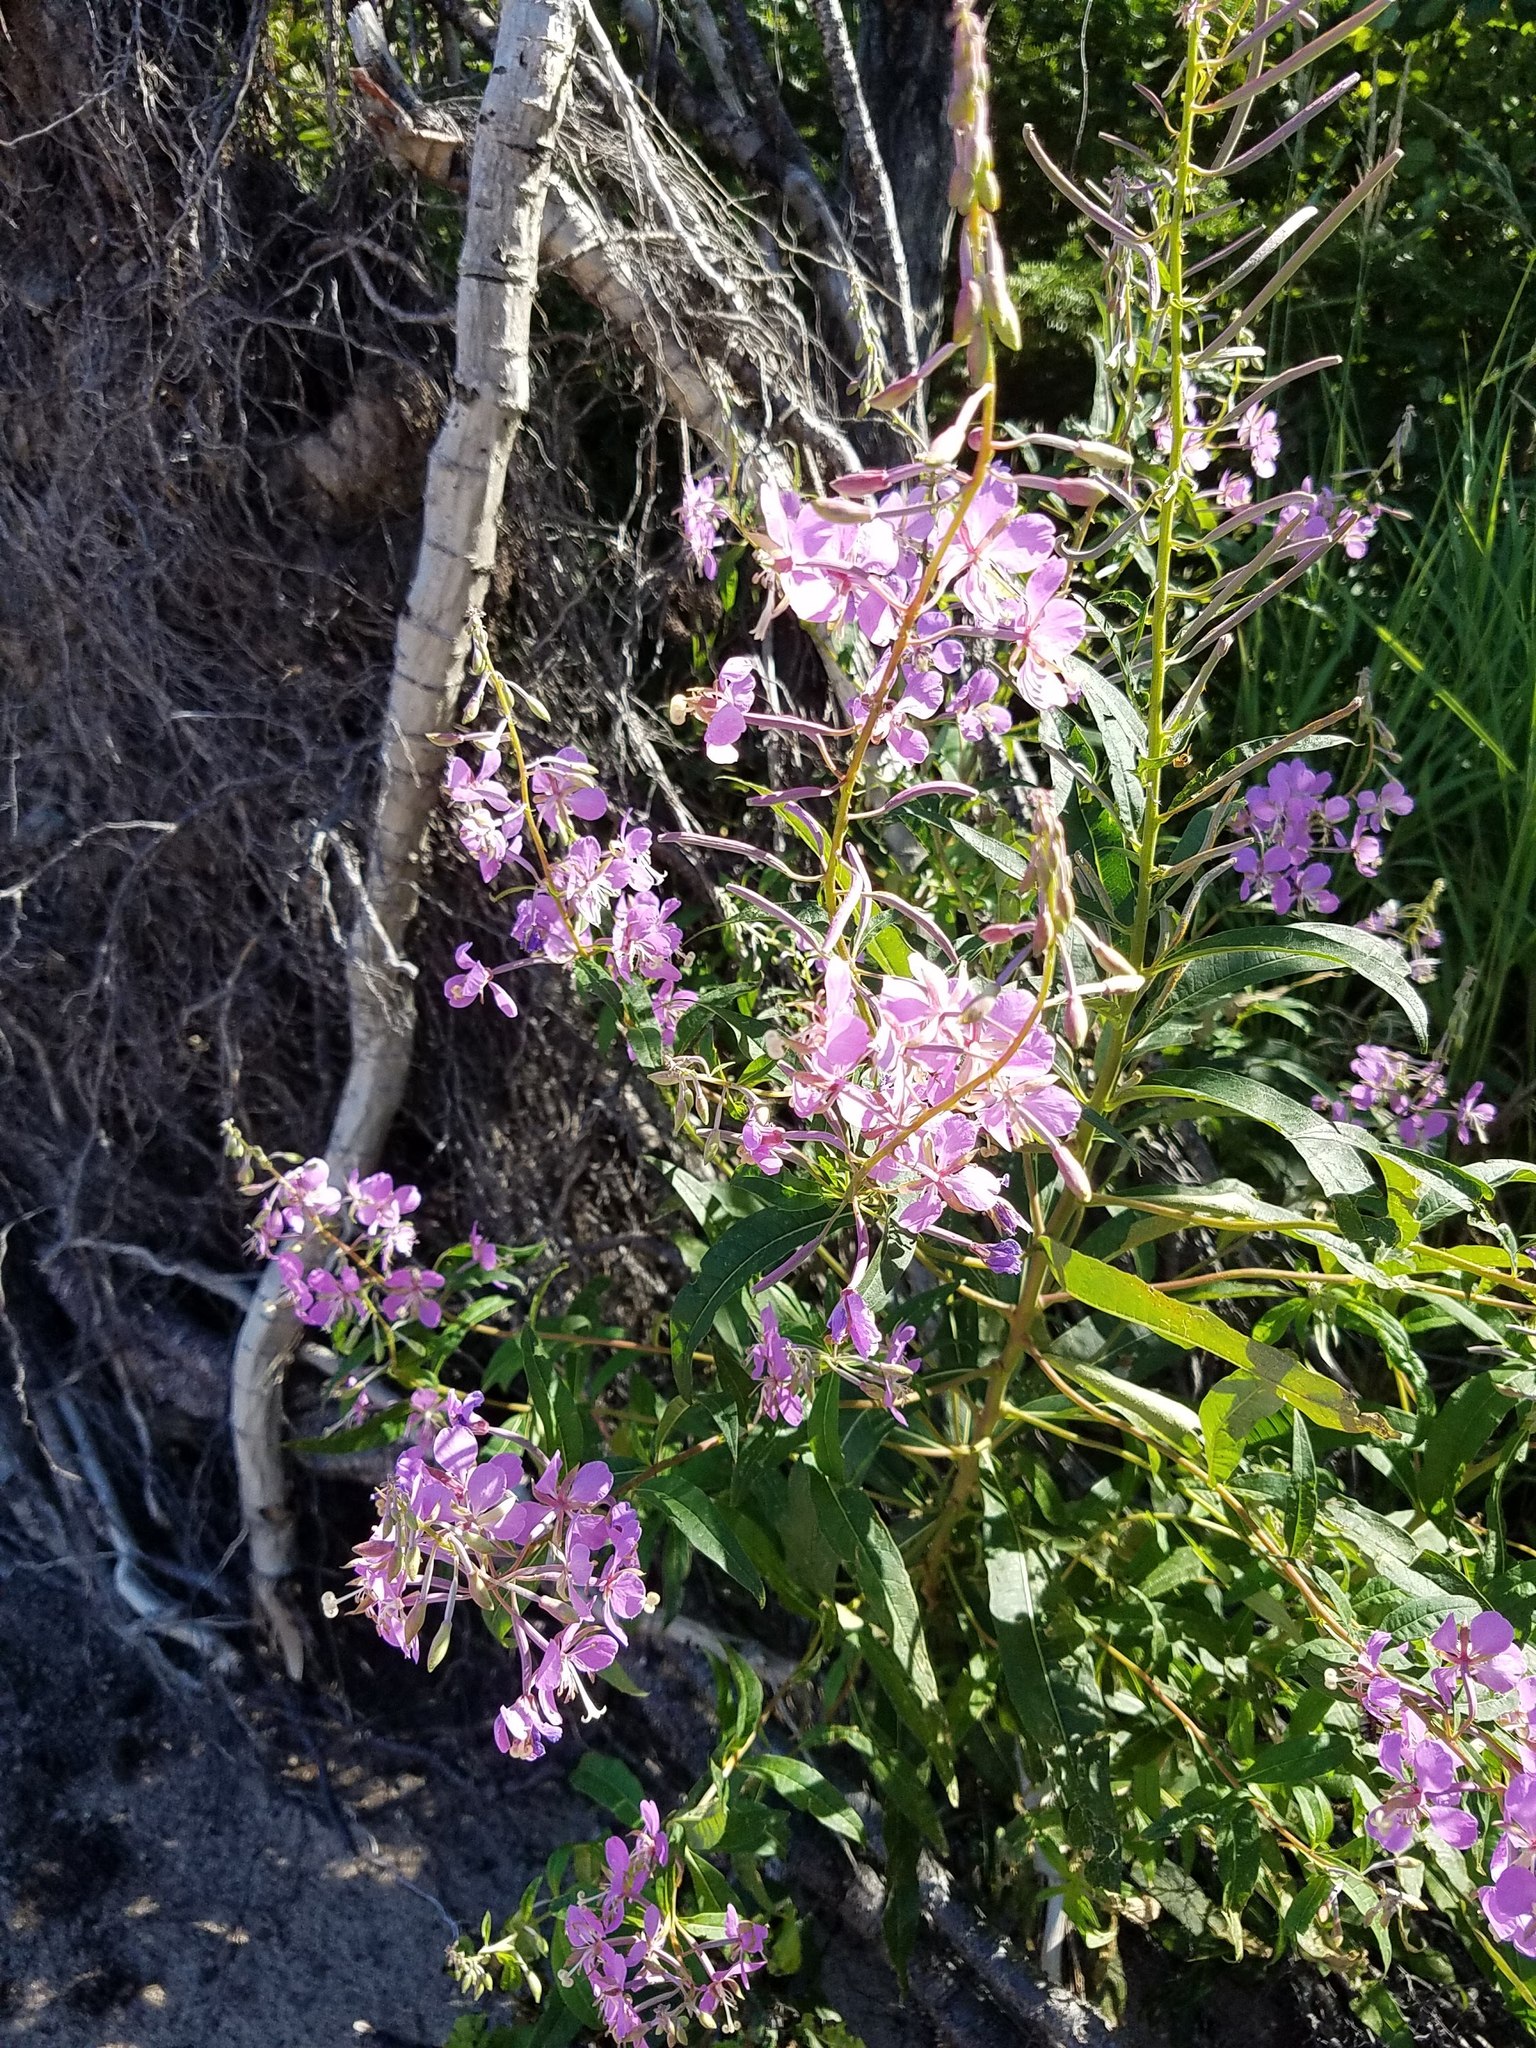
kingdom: Plantae
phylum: Tracheophyta
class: Magnoliopsida
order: Myrtales
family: Onagraceae
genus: Chamaenerion
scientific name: Chamaenerion angustifolium
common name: Fireweed
